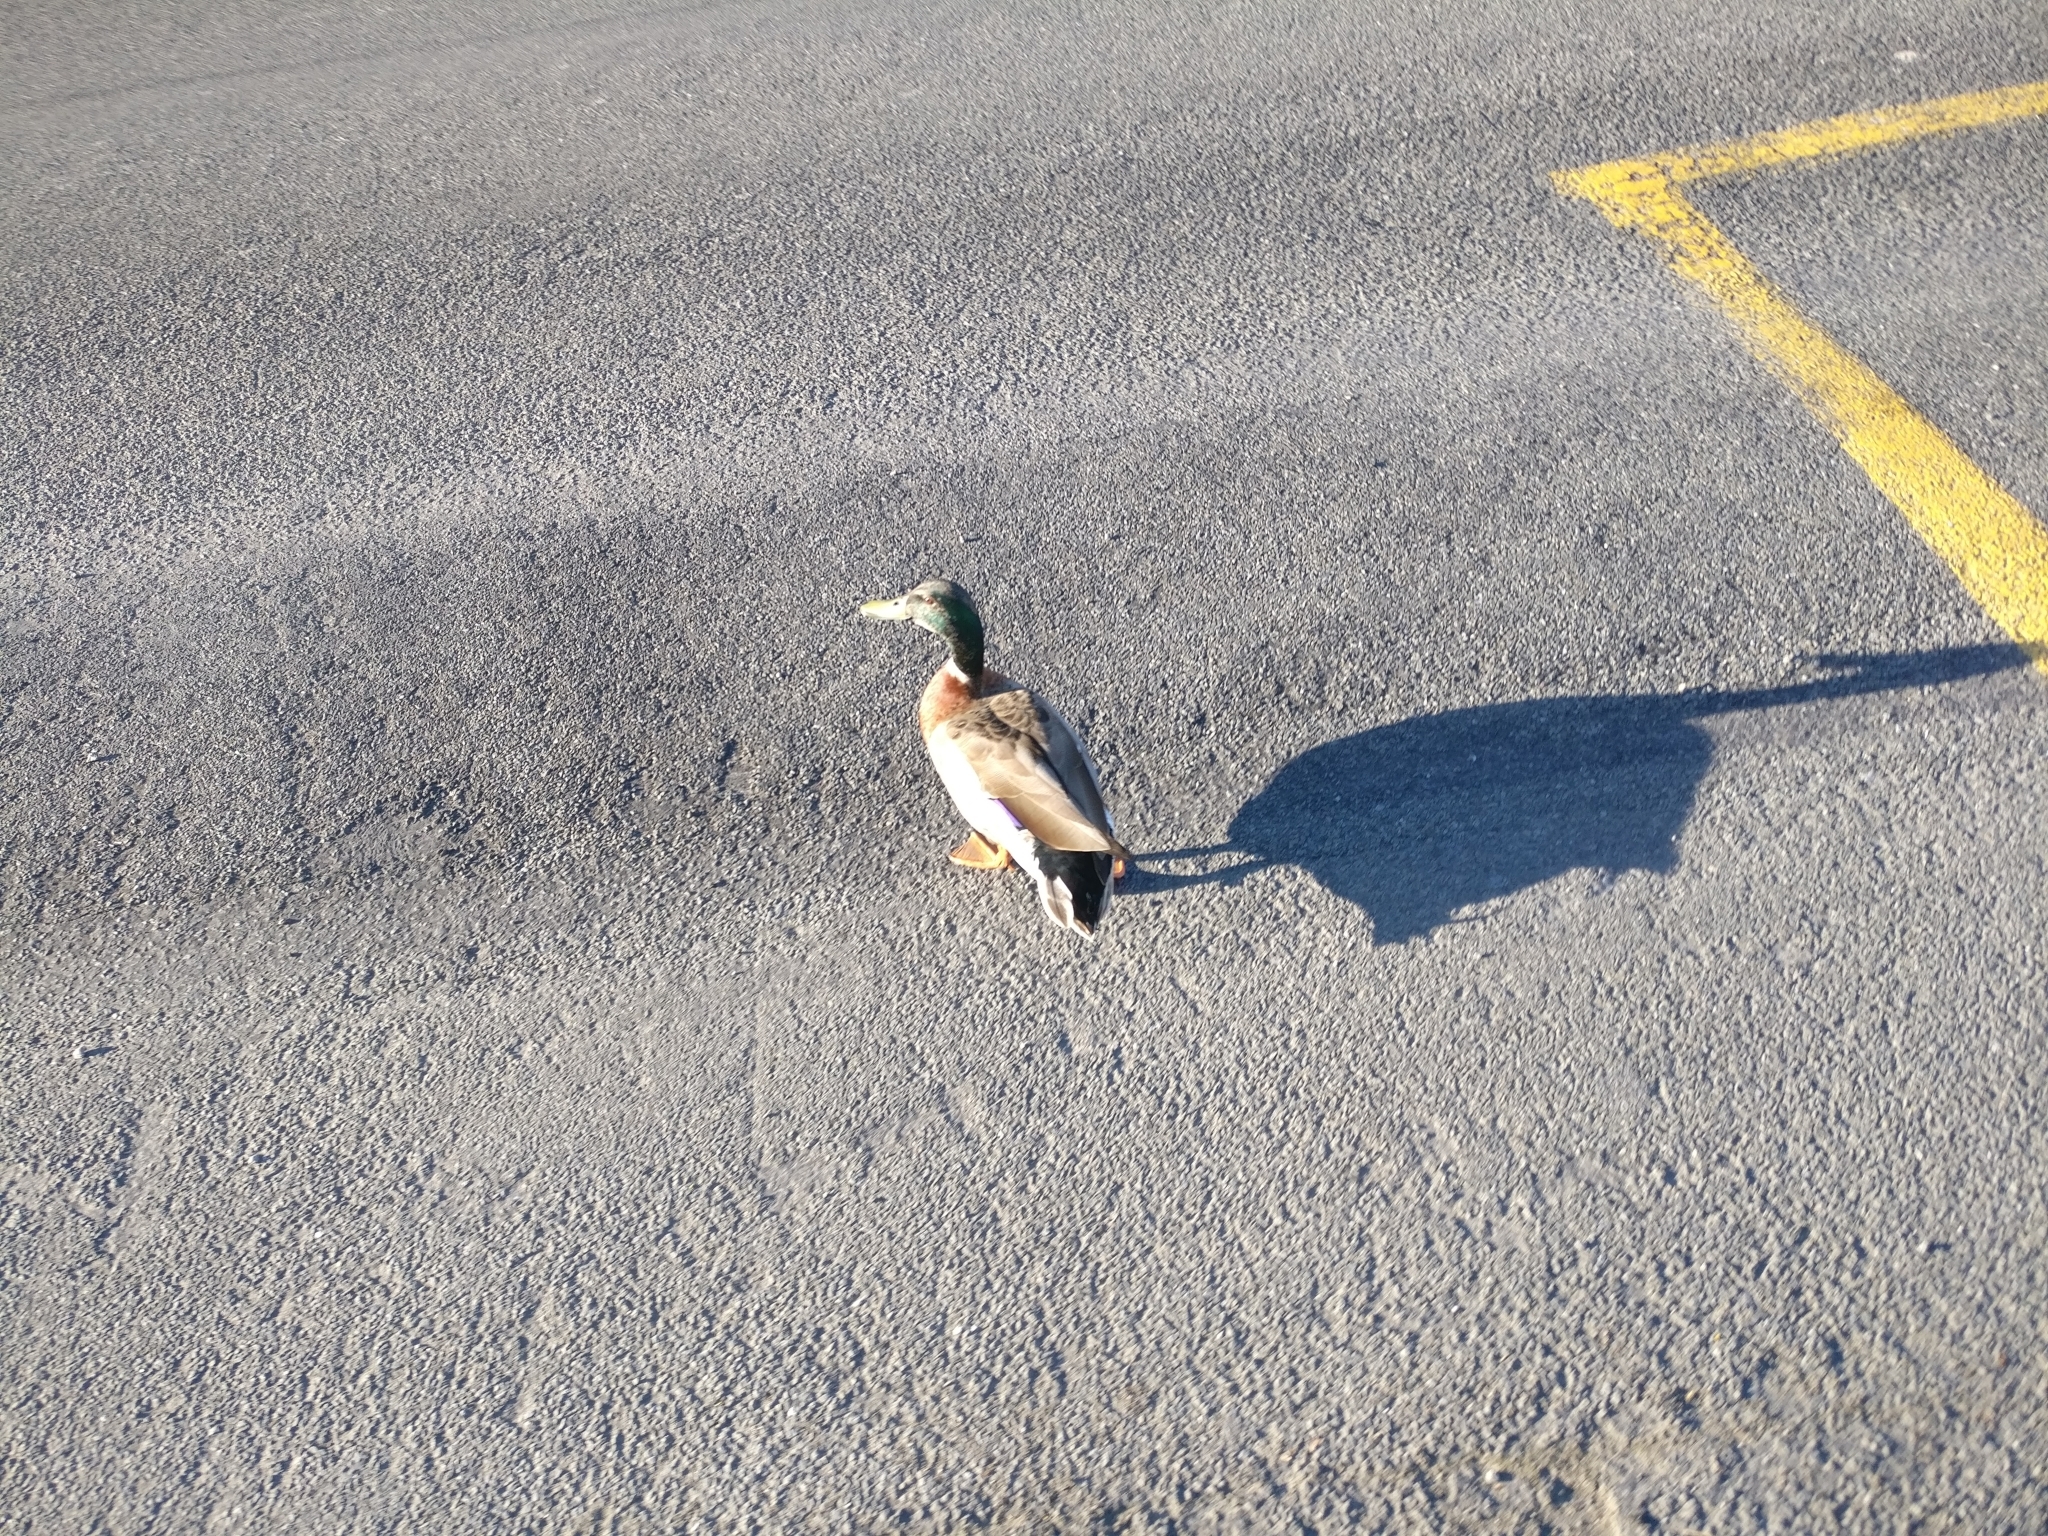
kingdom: Animalia
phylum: Chordata
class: Aves
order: Anseriformes
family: Anatidae
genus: Anas
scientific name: Anas platyrhynchos
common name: Mallard
